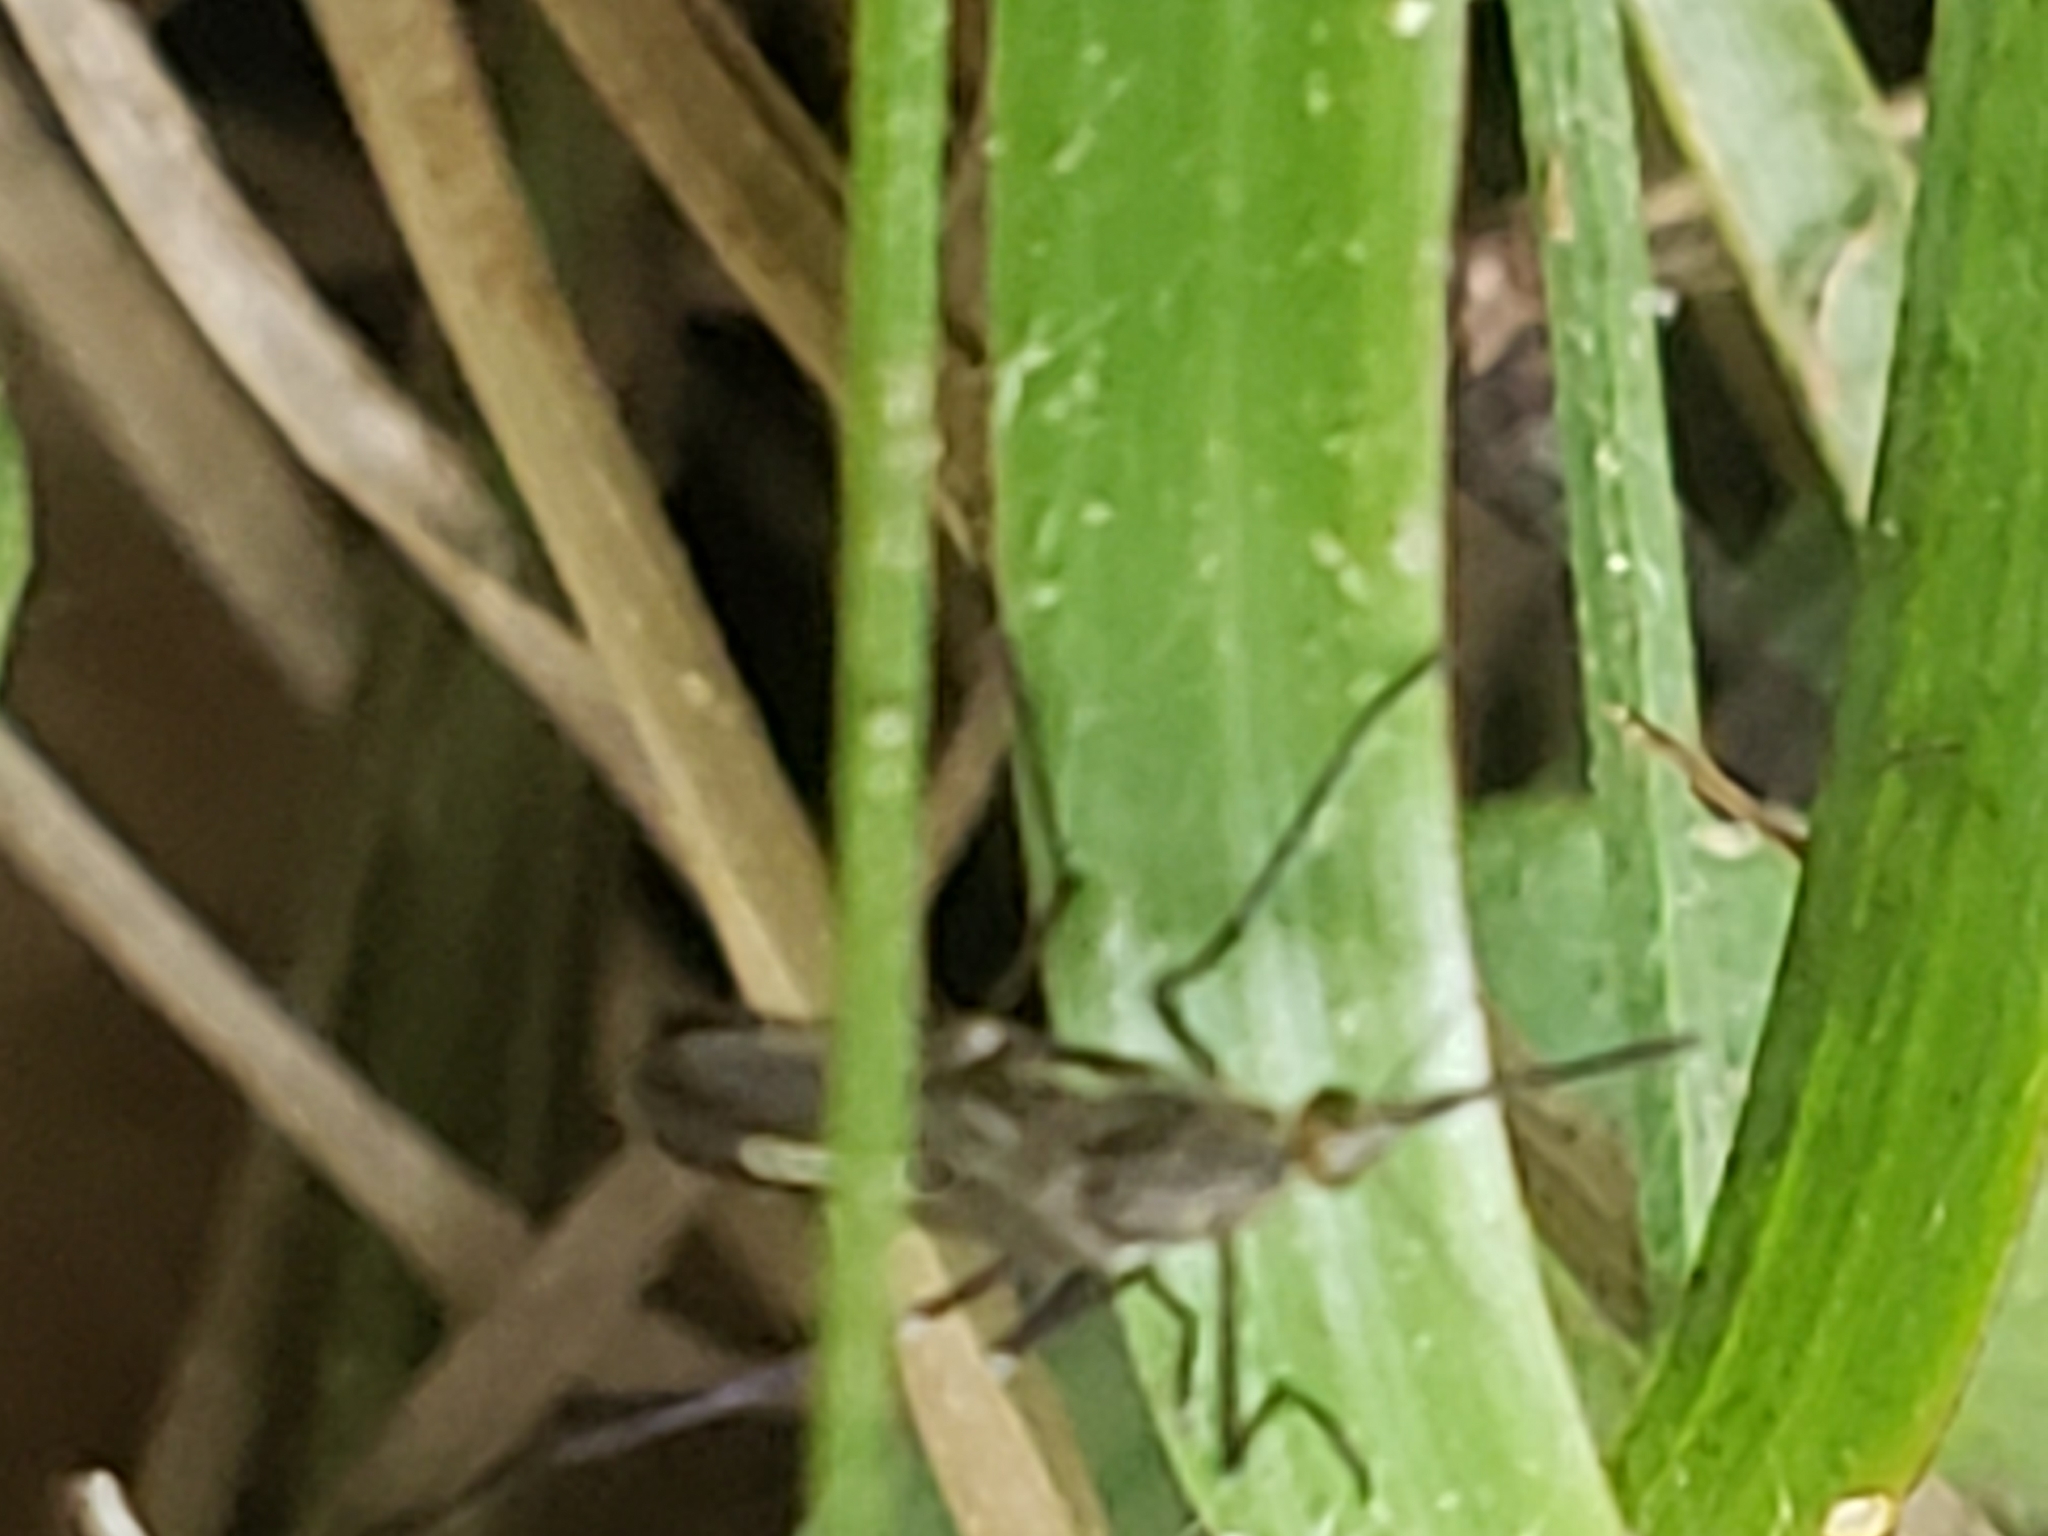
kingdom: Animalia
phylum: Arthropoda
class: Insecta
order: Diptera
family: Culicidae
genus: Psorophora
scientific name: Psorophora ferox
